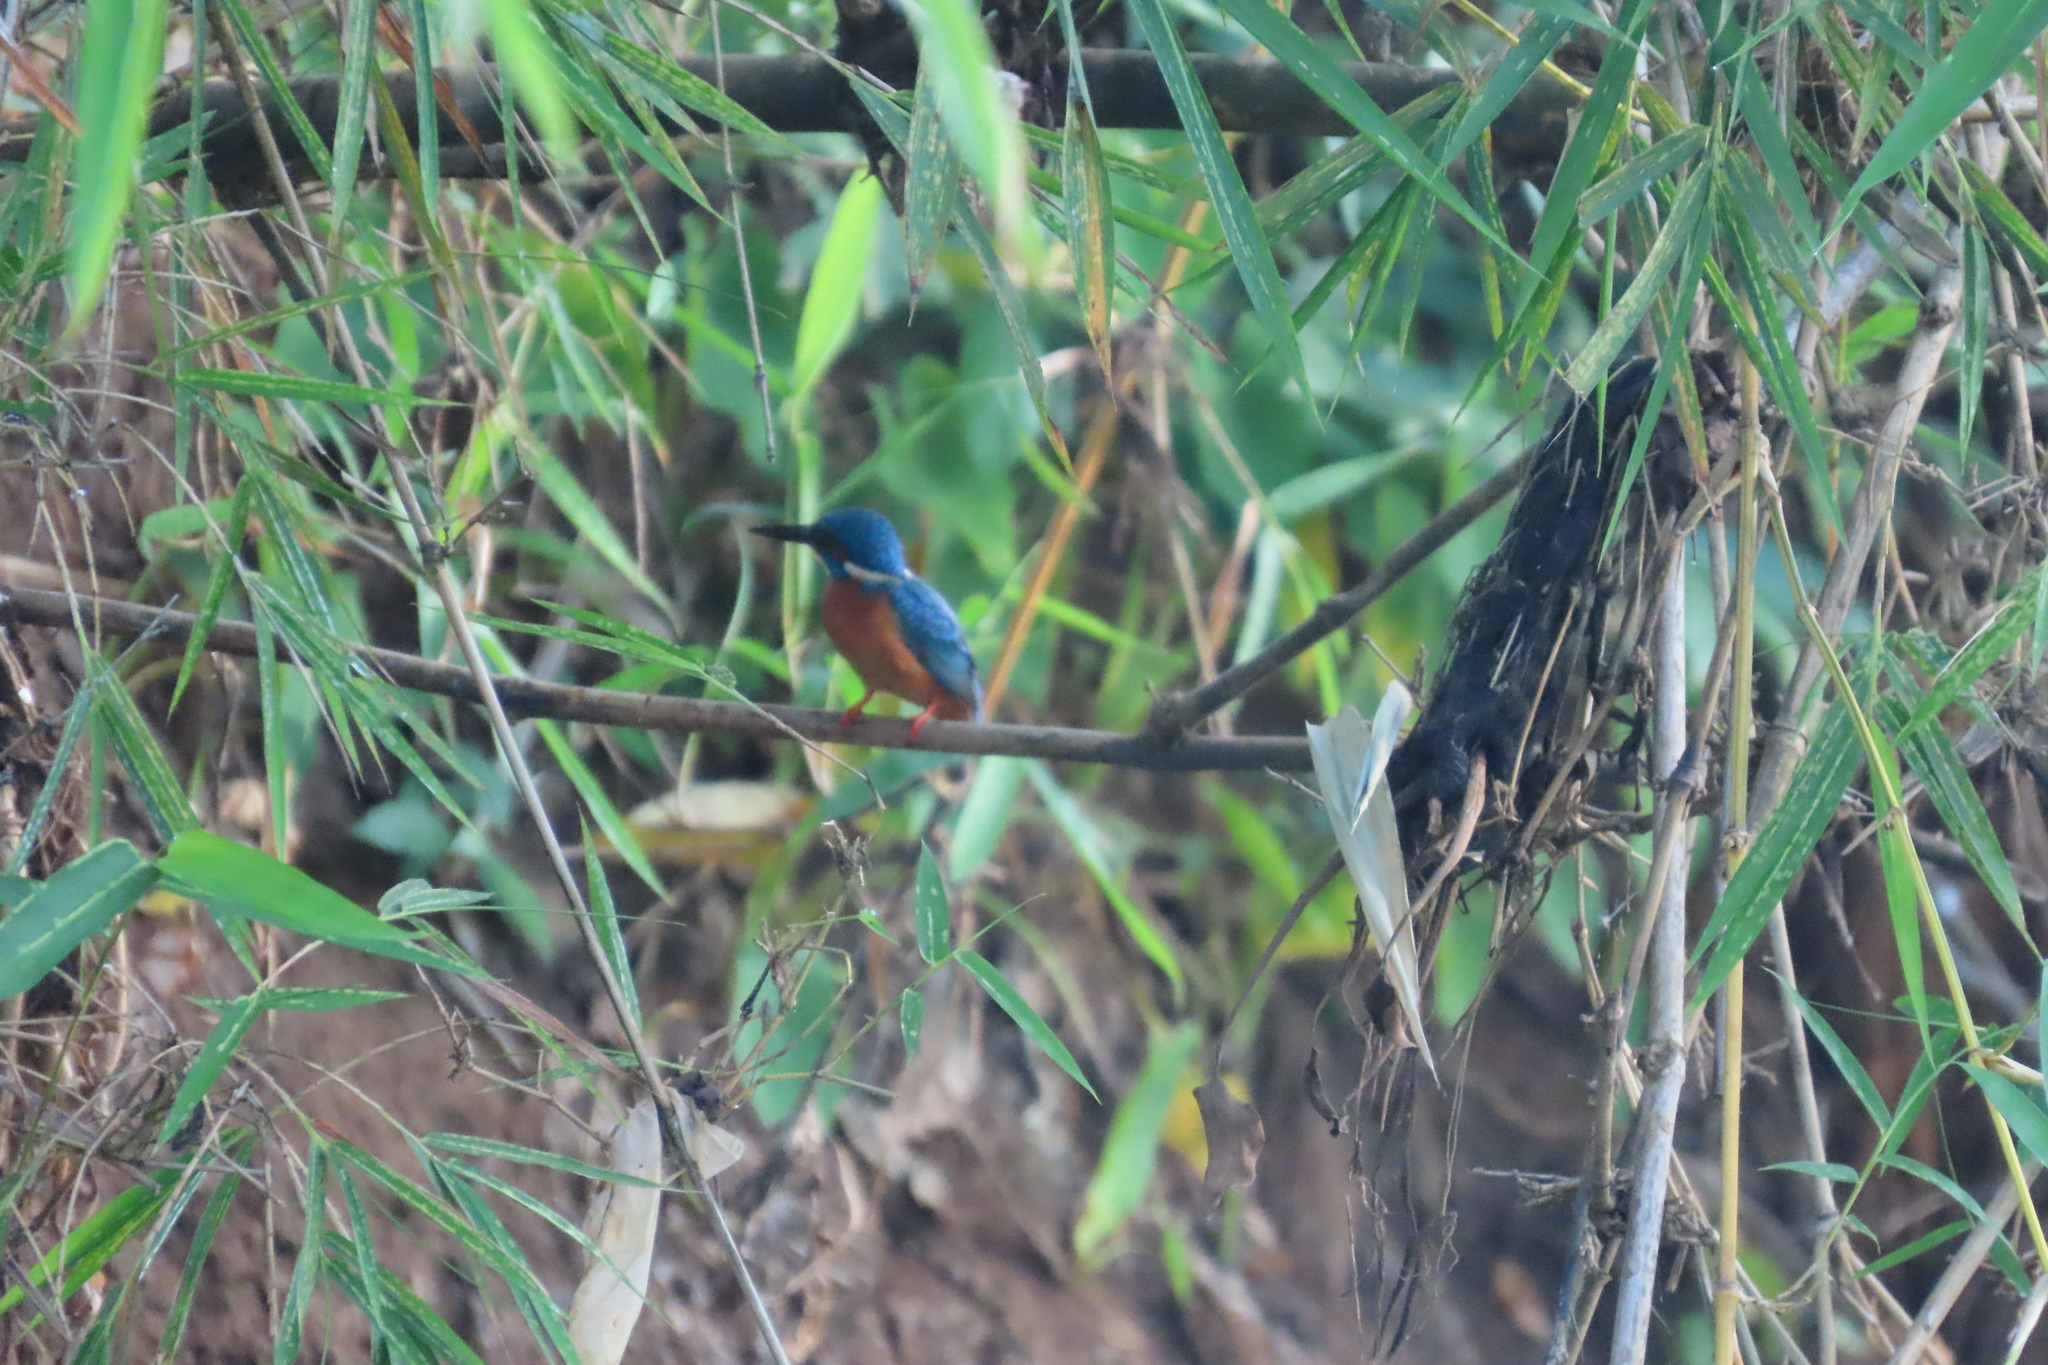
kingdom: Animalia
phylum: Chordata
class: Aves
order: Coraciiformes
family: Alcedinidae
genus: Alcedo
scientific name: Alcedo atthis
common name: Common kingfisher
